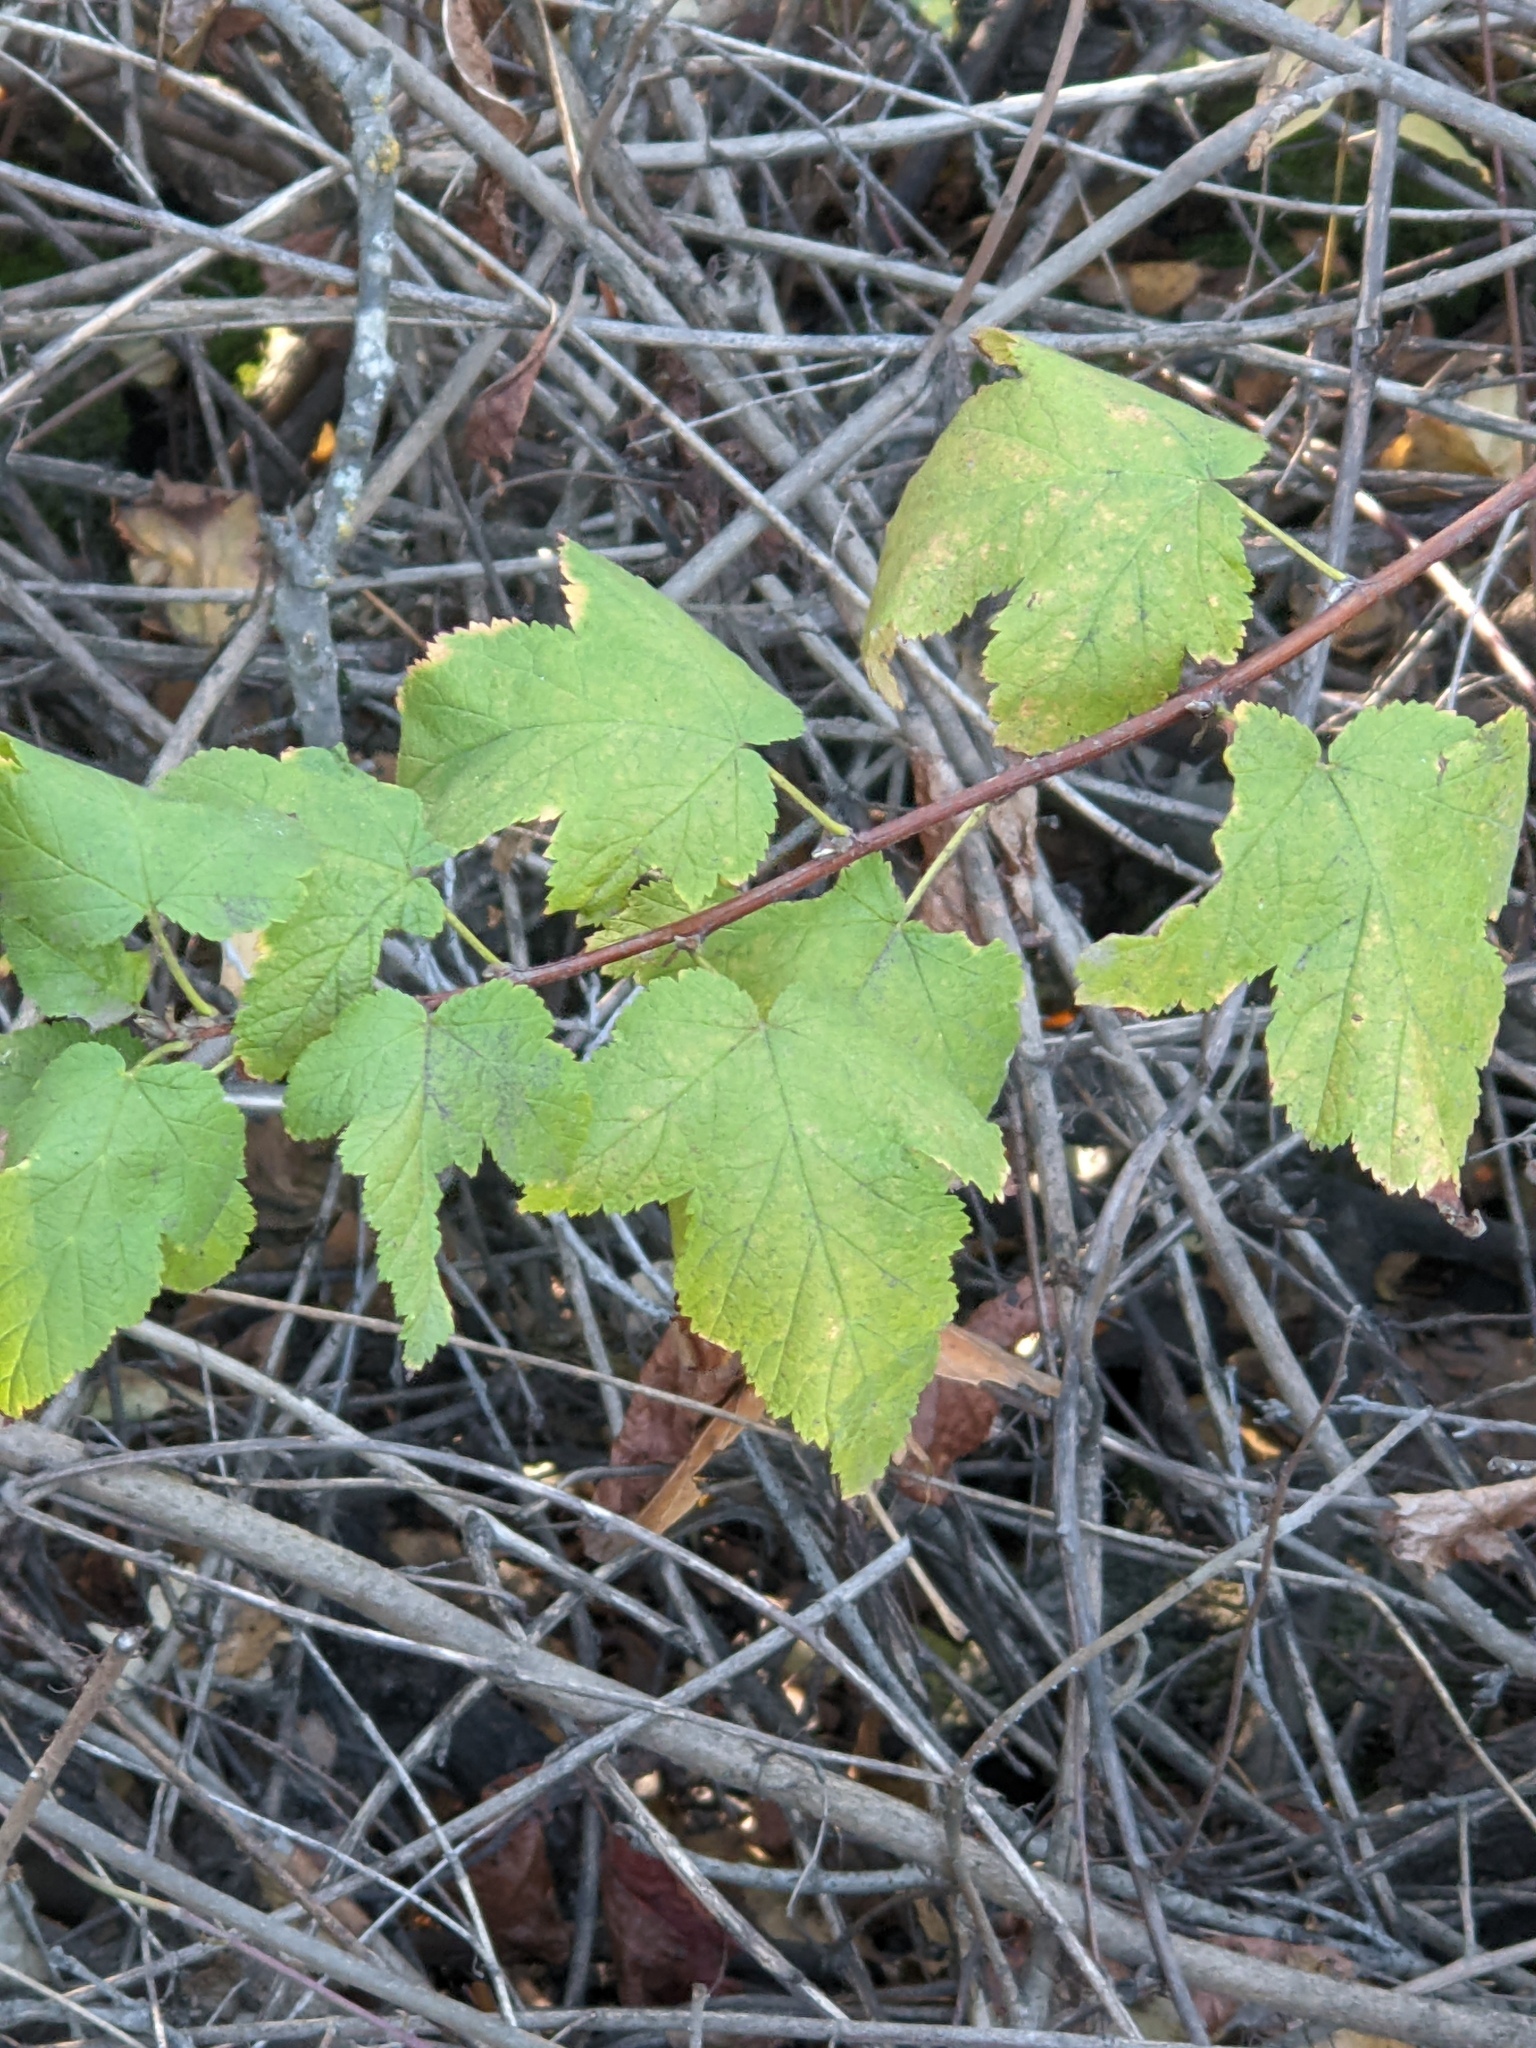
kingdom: Plantae
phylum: Tracheophyta
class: Magnoliopsida
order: Rosales
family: Rosaceae
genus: Physocarpus
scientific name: Physocarpus capitatus
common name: Pacific ninebark
